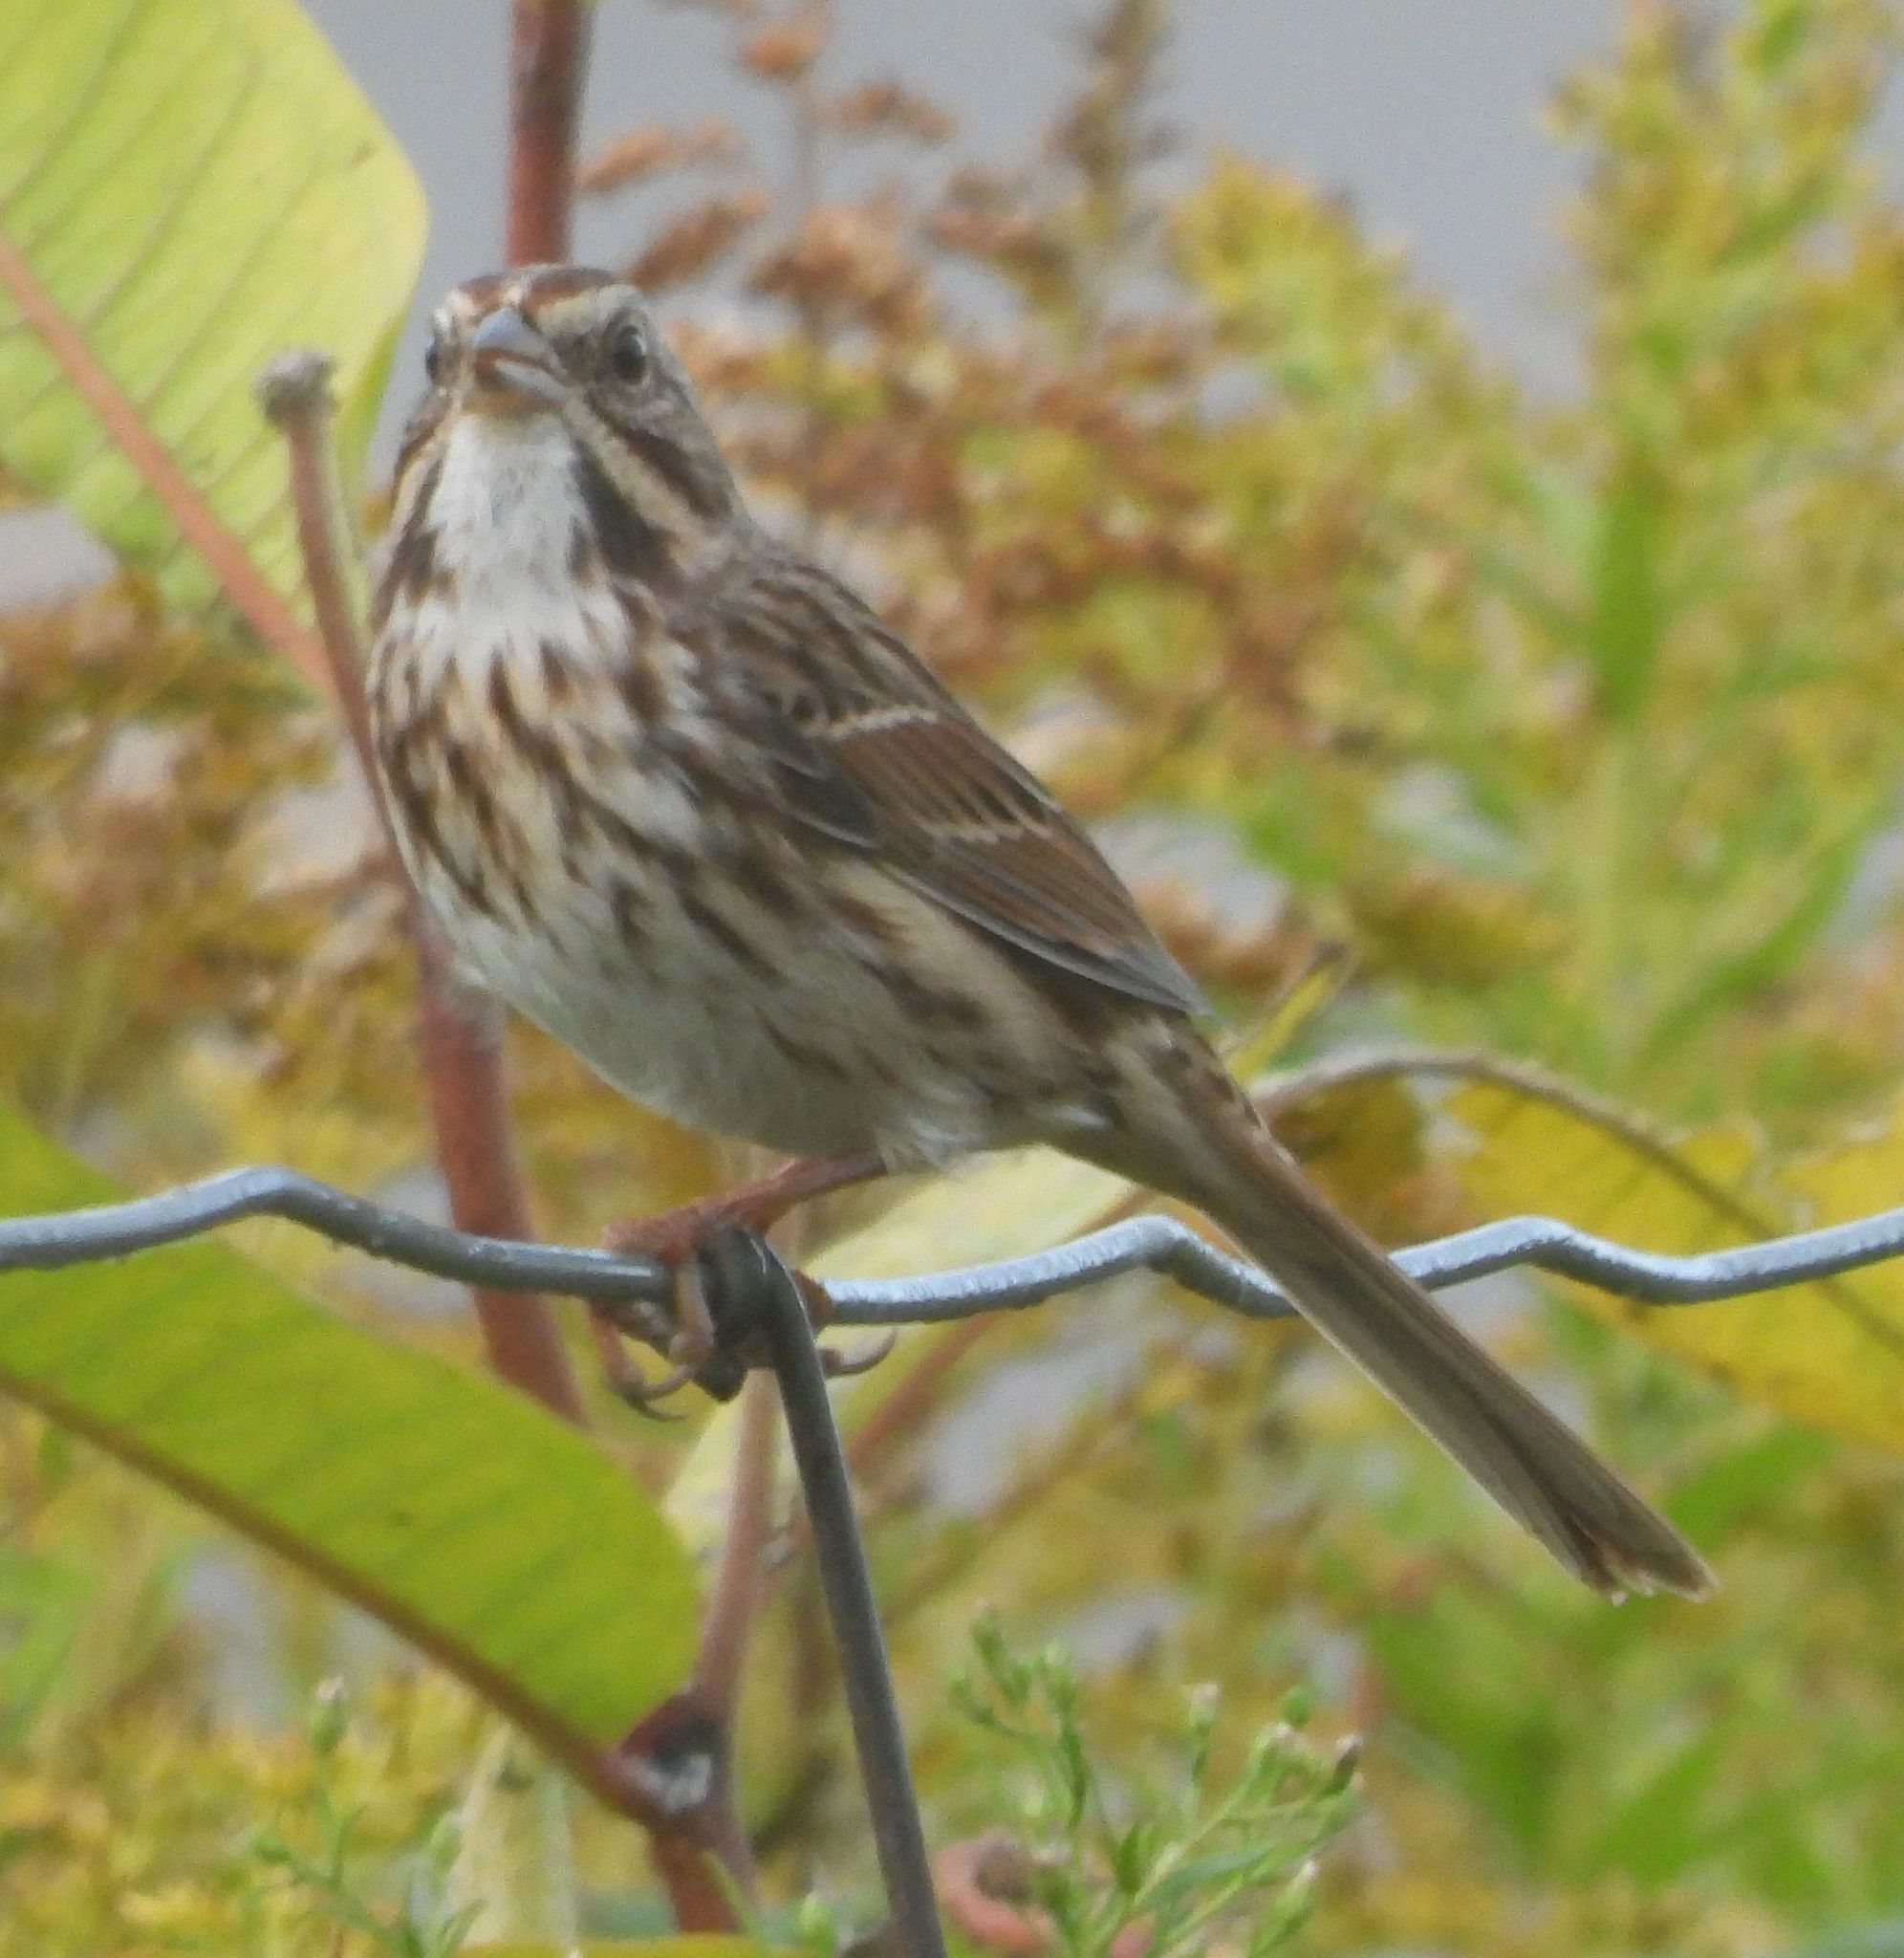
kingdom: Animalia
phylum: Chordata
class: Aves
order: Passeriformes
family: Passerellidae
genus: Melospiza
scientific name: Melospiza melodia
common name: Song sparrow
